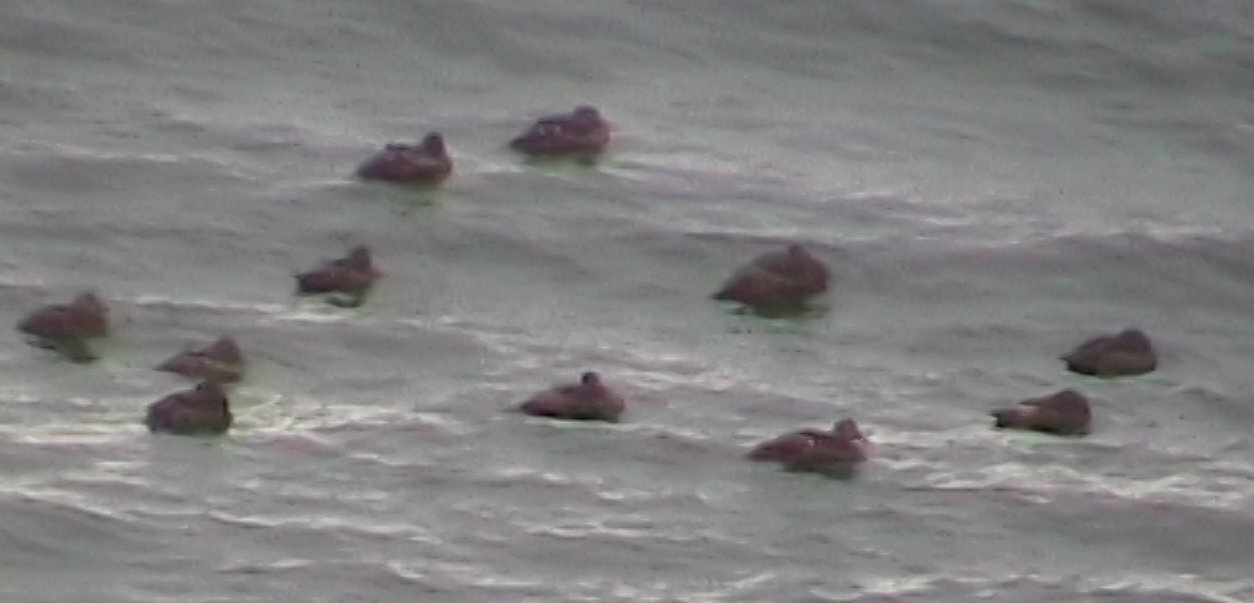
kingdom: Animalia
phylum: Chordata
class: Aves
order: Anseriformes
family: Anatidae
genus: Somateria
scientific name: Somateria mollissima
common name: Common eider
